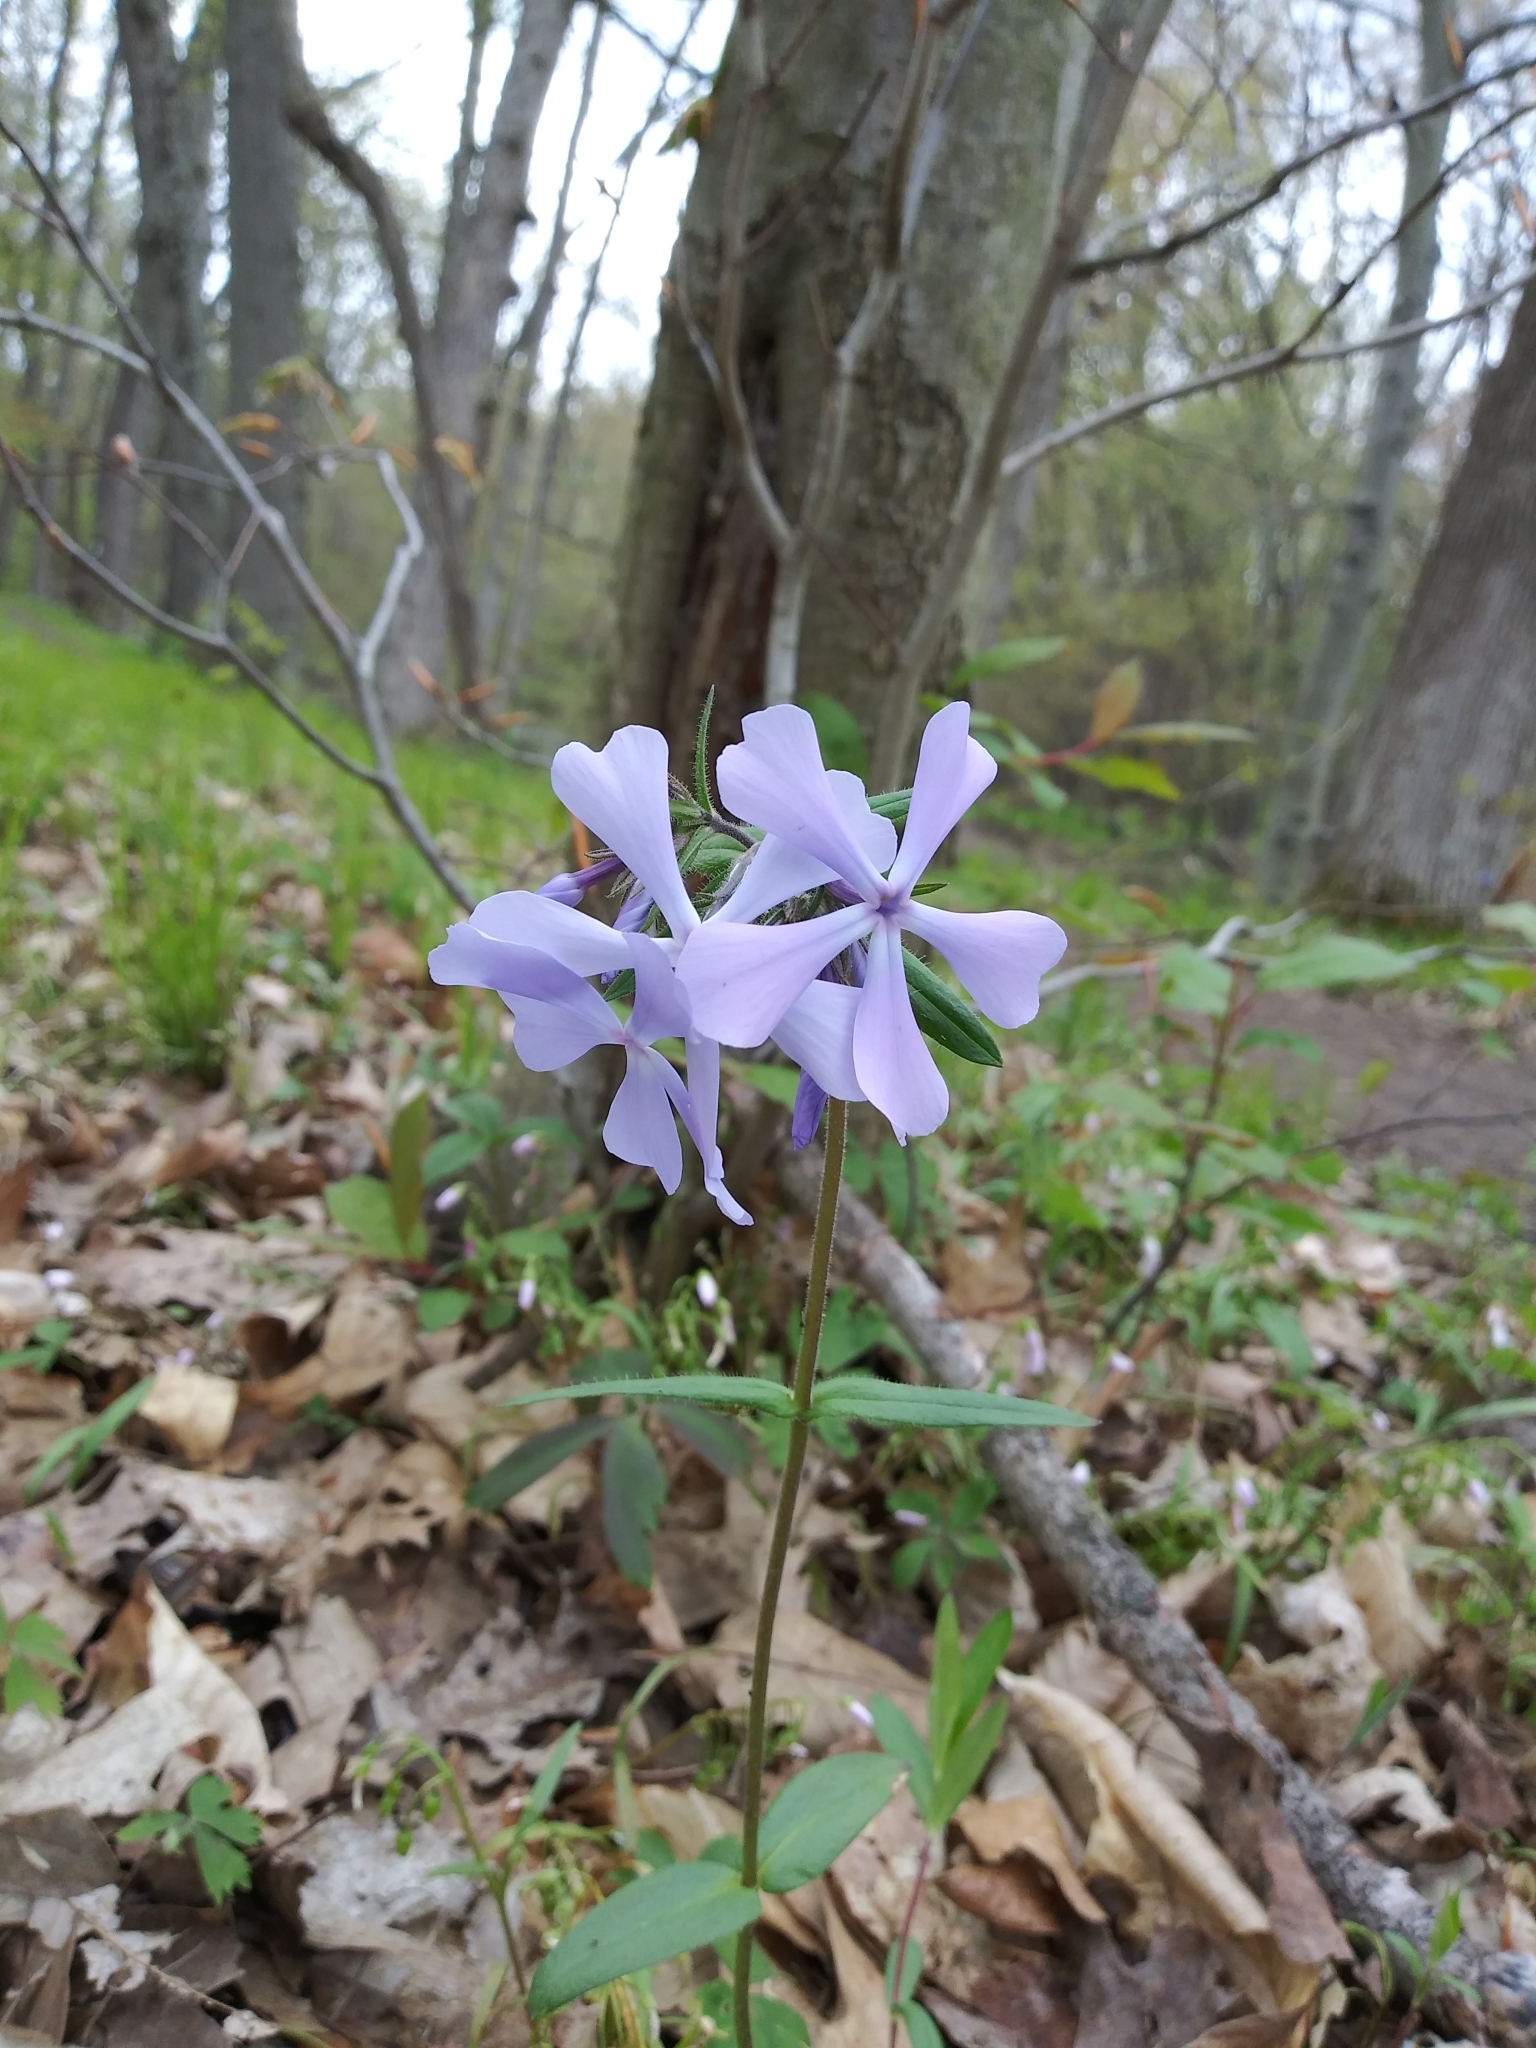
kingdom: Plantae
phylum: Tracheophyta
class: Magnoliopsida
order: Ericales
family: Polemoniaceae
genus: Phlox
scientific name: Phlox divaricata
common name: Blue phlox
